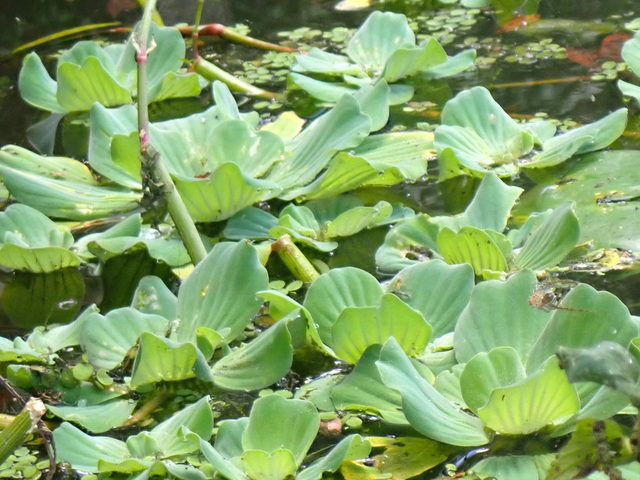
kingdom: Plantae
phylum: Tracheophyta
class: Liliopsida
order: Alismatales
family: Araceae
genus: Pistia
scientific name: Pistia stratiotes
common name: Water lettuce
